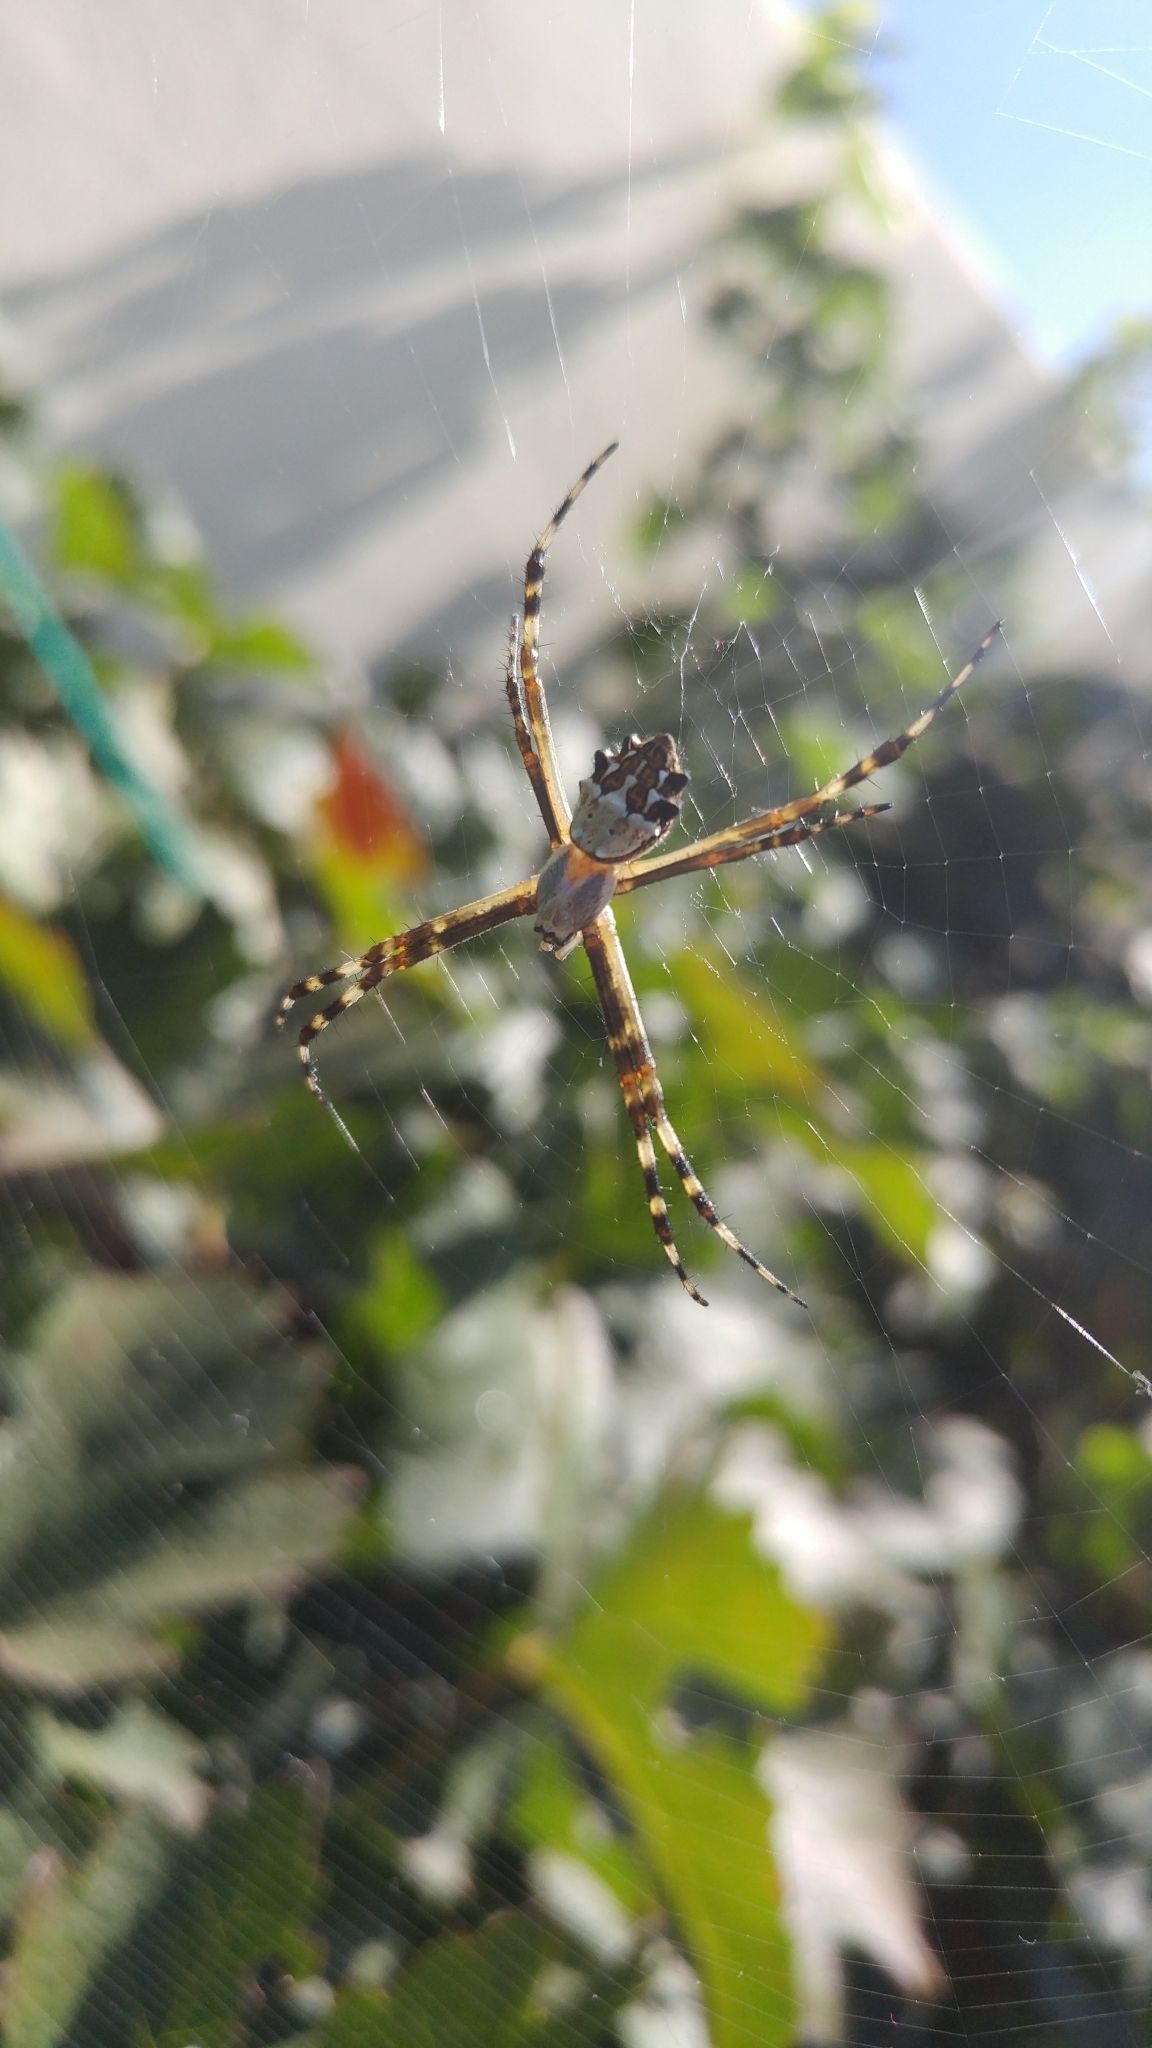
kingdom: Animalia
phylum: Arthropoda
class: Arachnida
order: Araneae
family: Araneidae
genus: Argiope
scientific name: Argiope argentata
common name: Orb weavers
